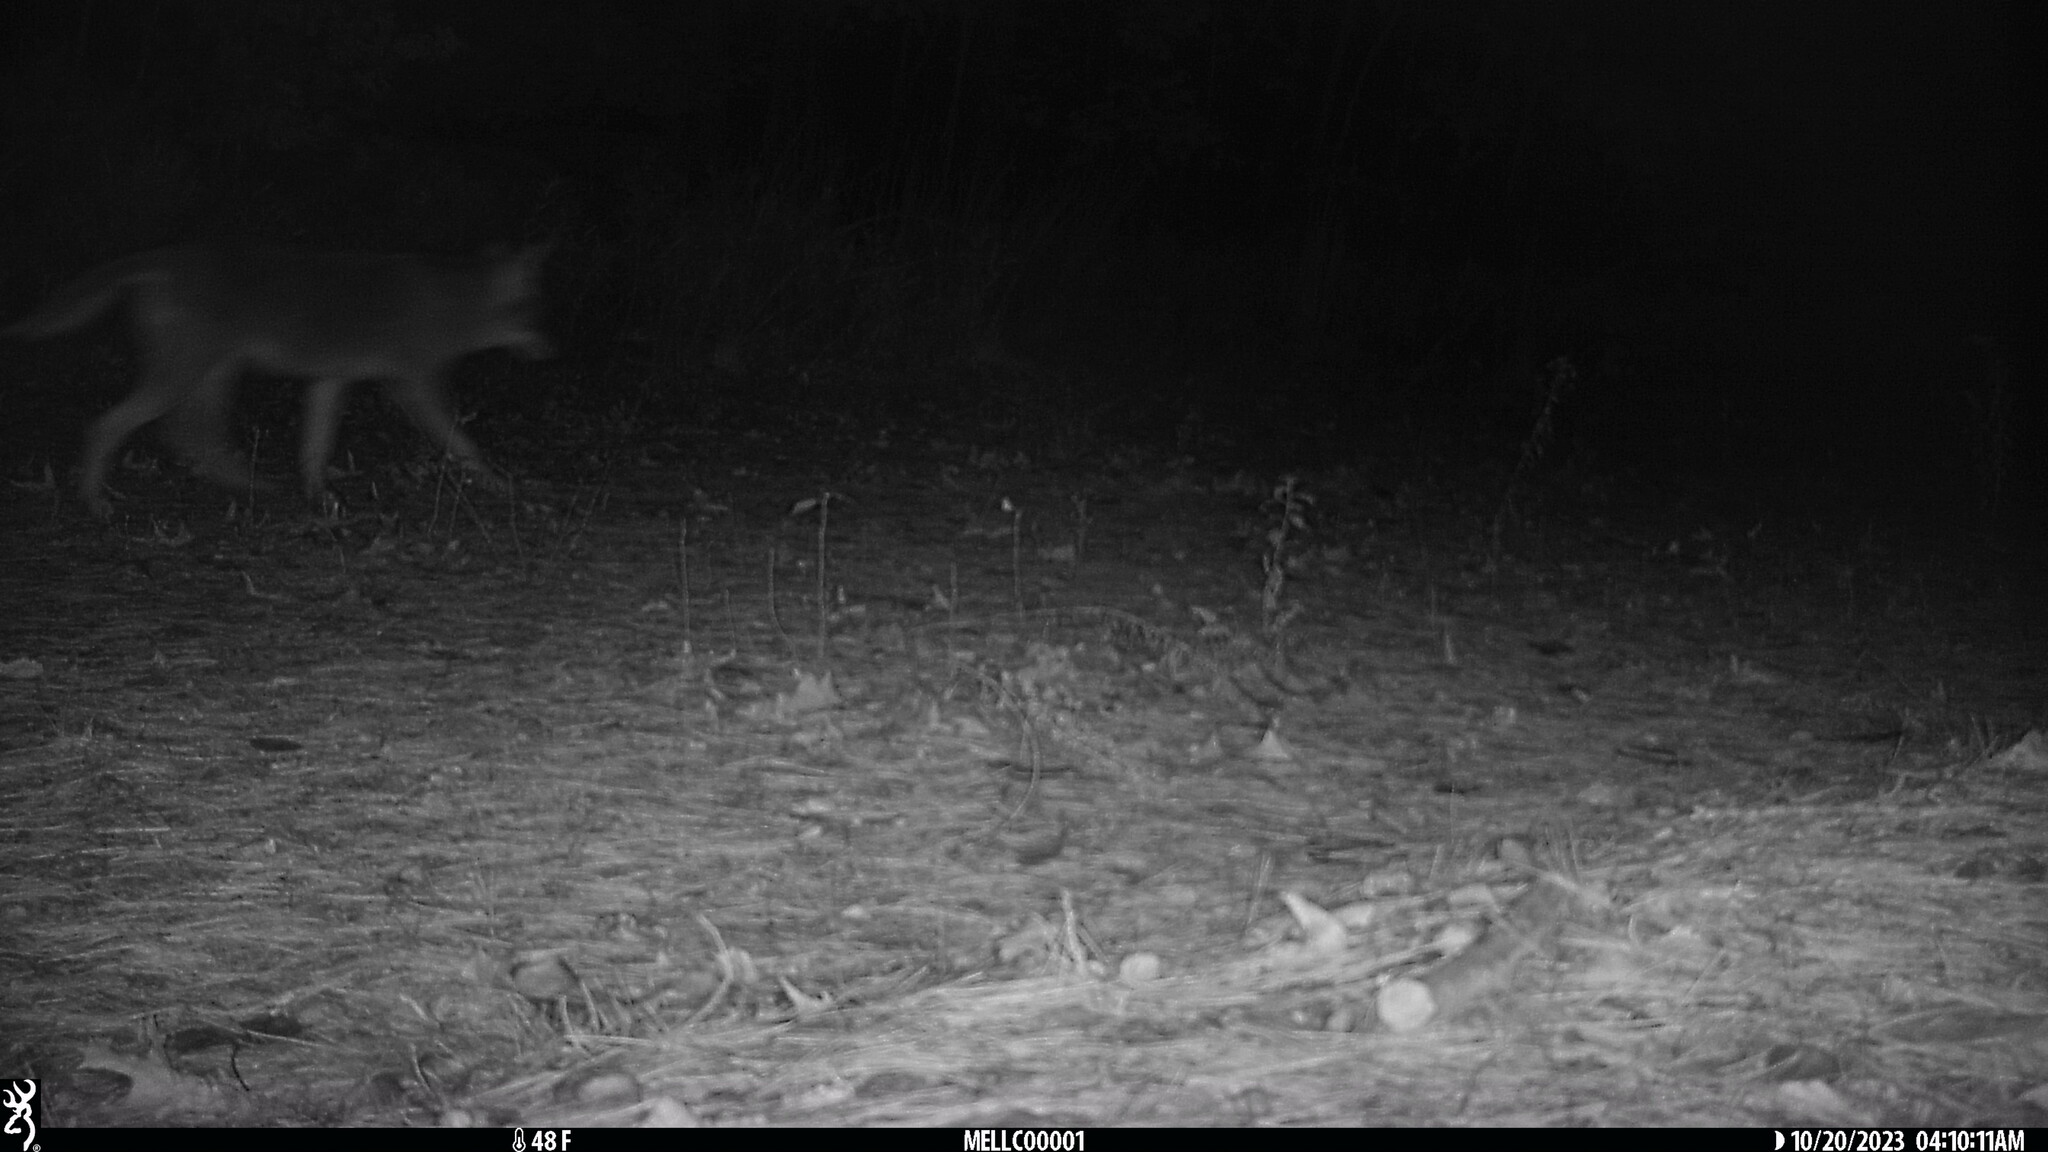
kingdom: Animalia
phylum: Chordata
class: Mammalia
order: Carnivora
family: Canidae
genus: Canis
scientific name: Canis latrans
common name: Coyote
